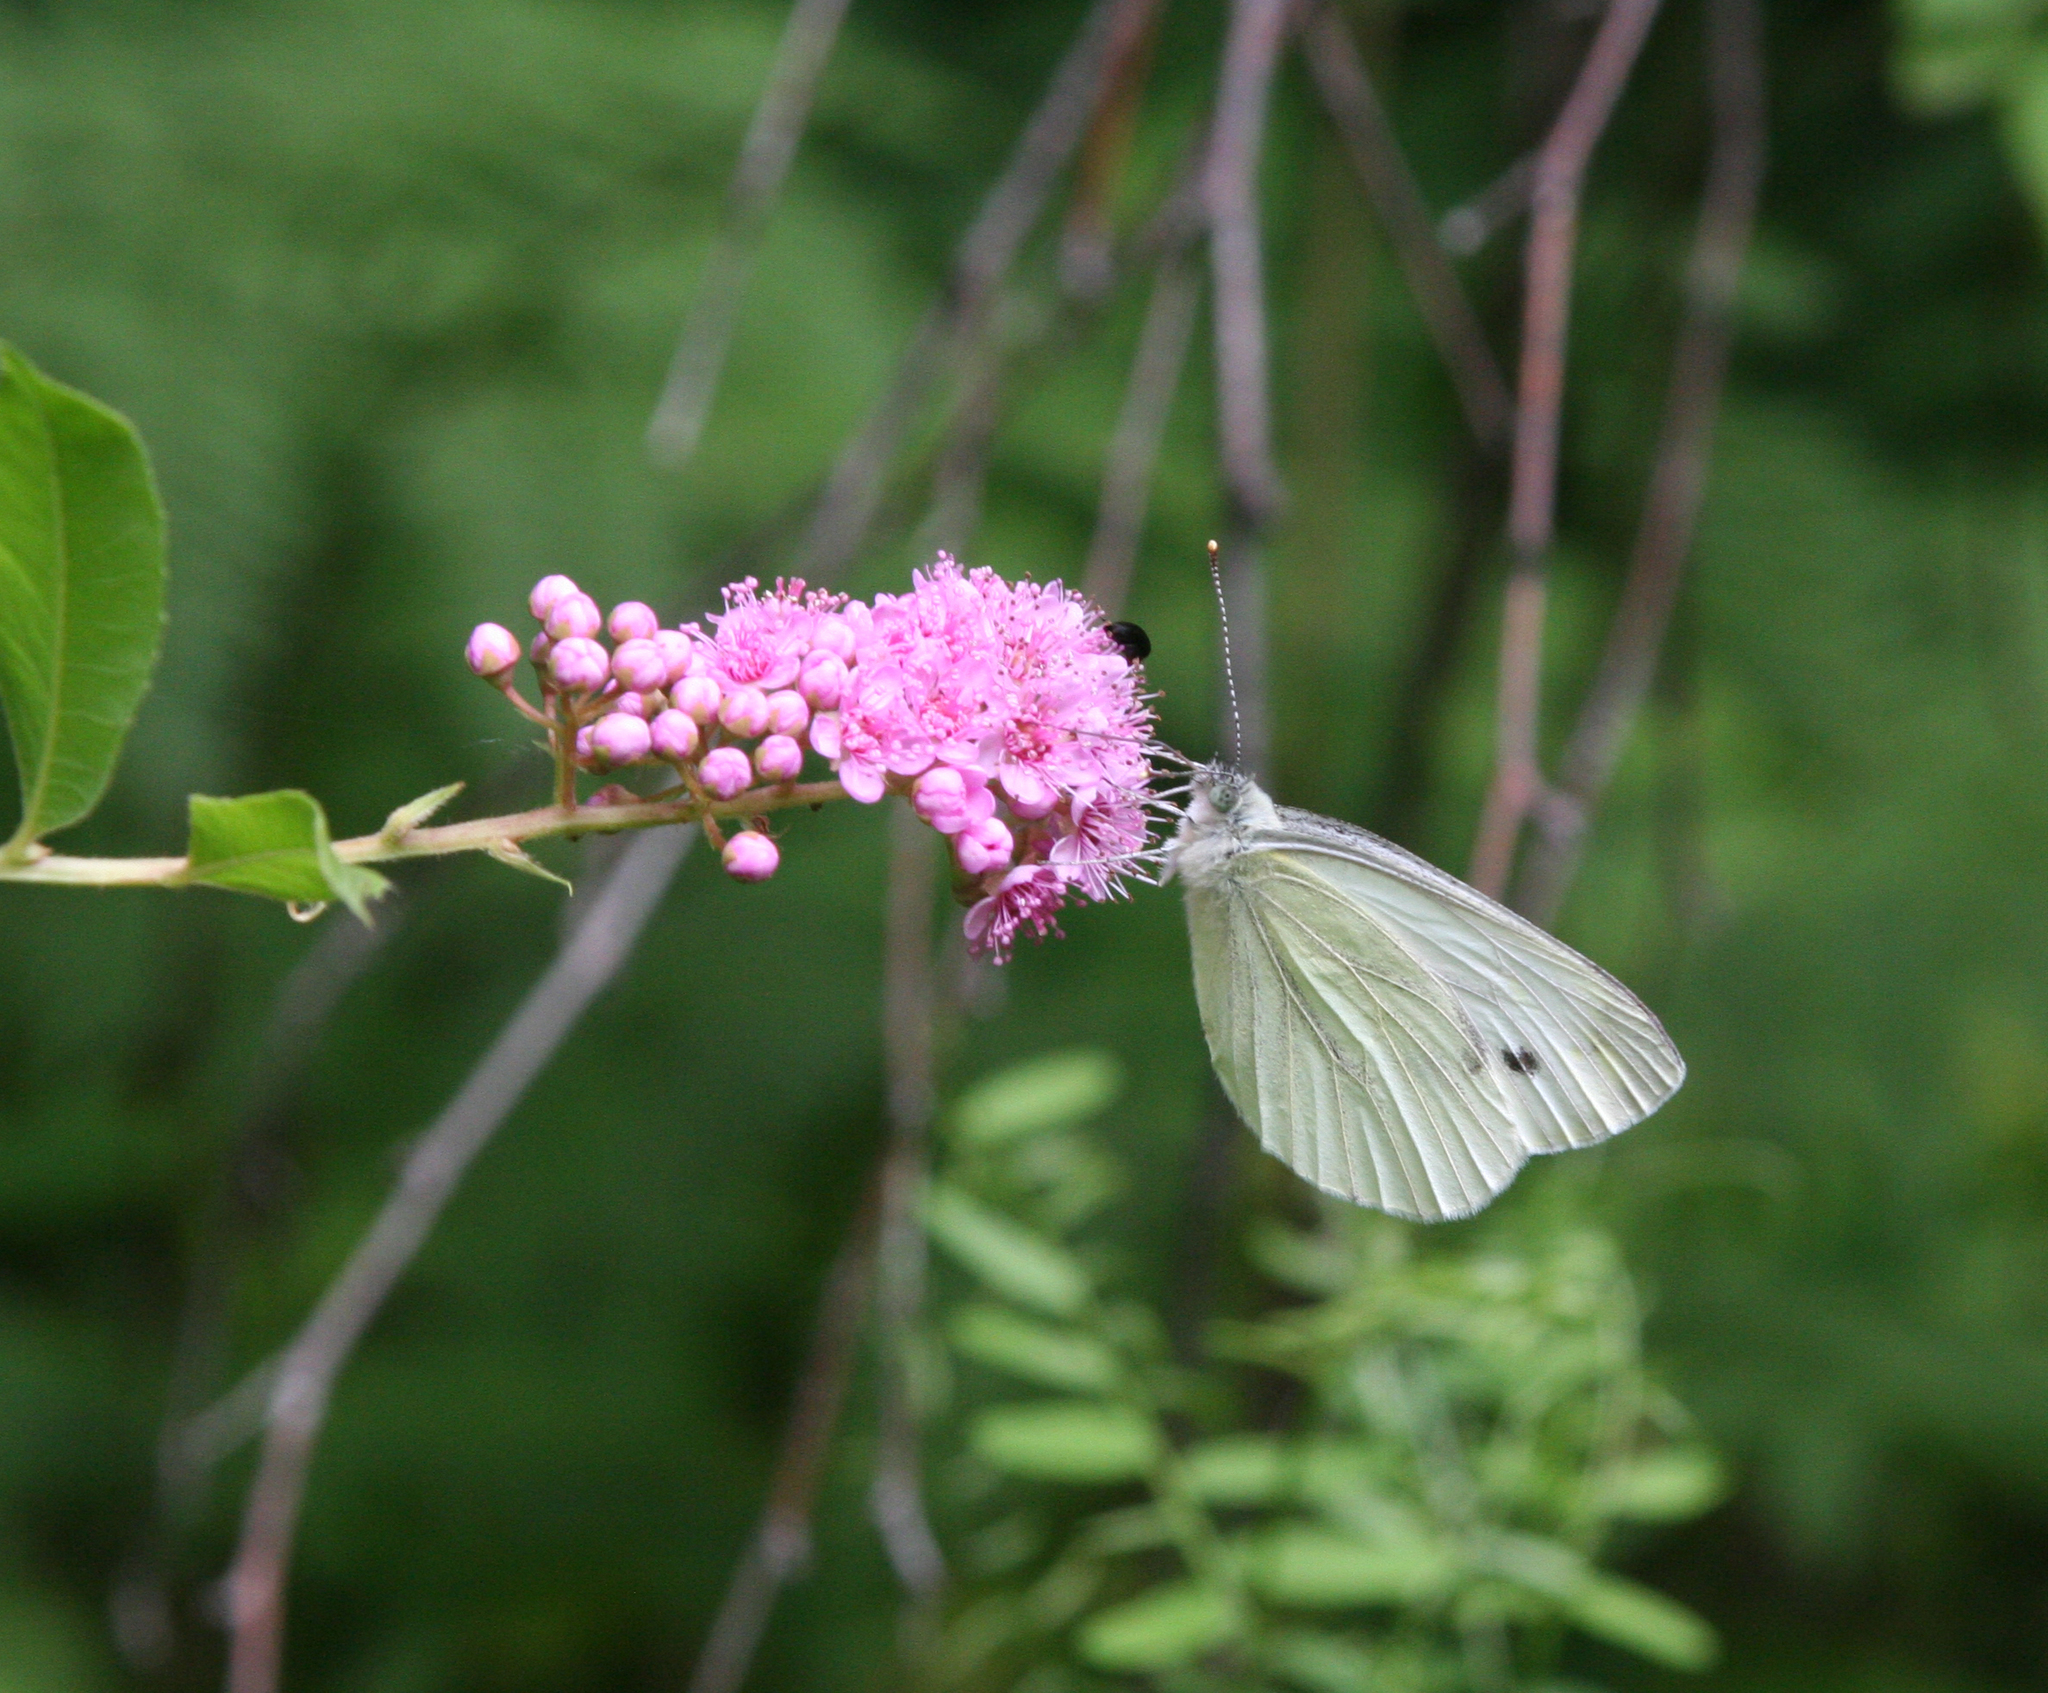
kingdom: Animalia
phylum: Arthropoda
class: Insecta
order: Lepidoptera
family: Pieridae
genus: Pieris
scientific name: Pieris napi
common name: Green-veined white
